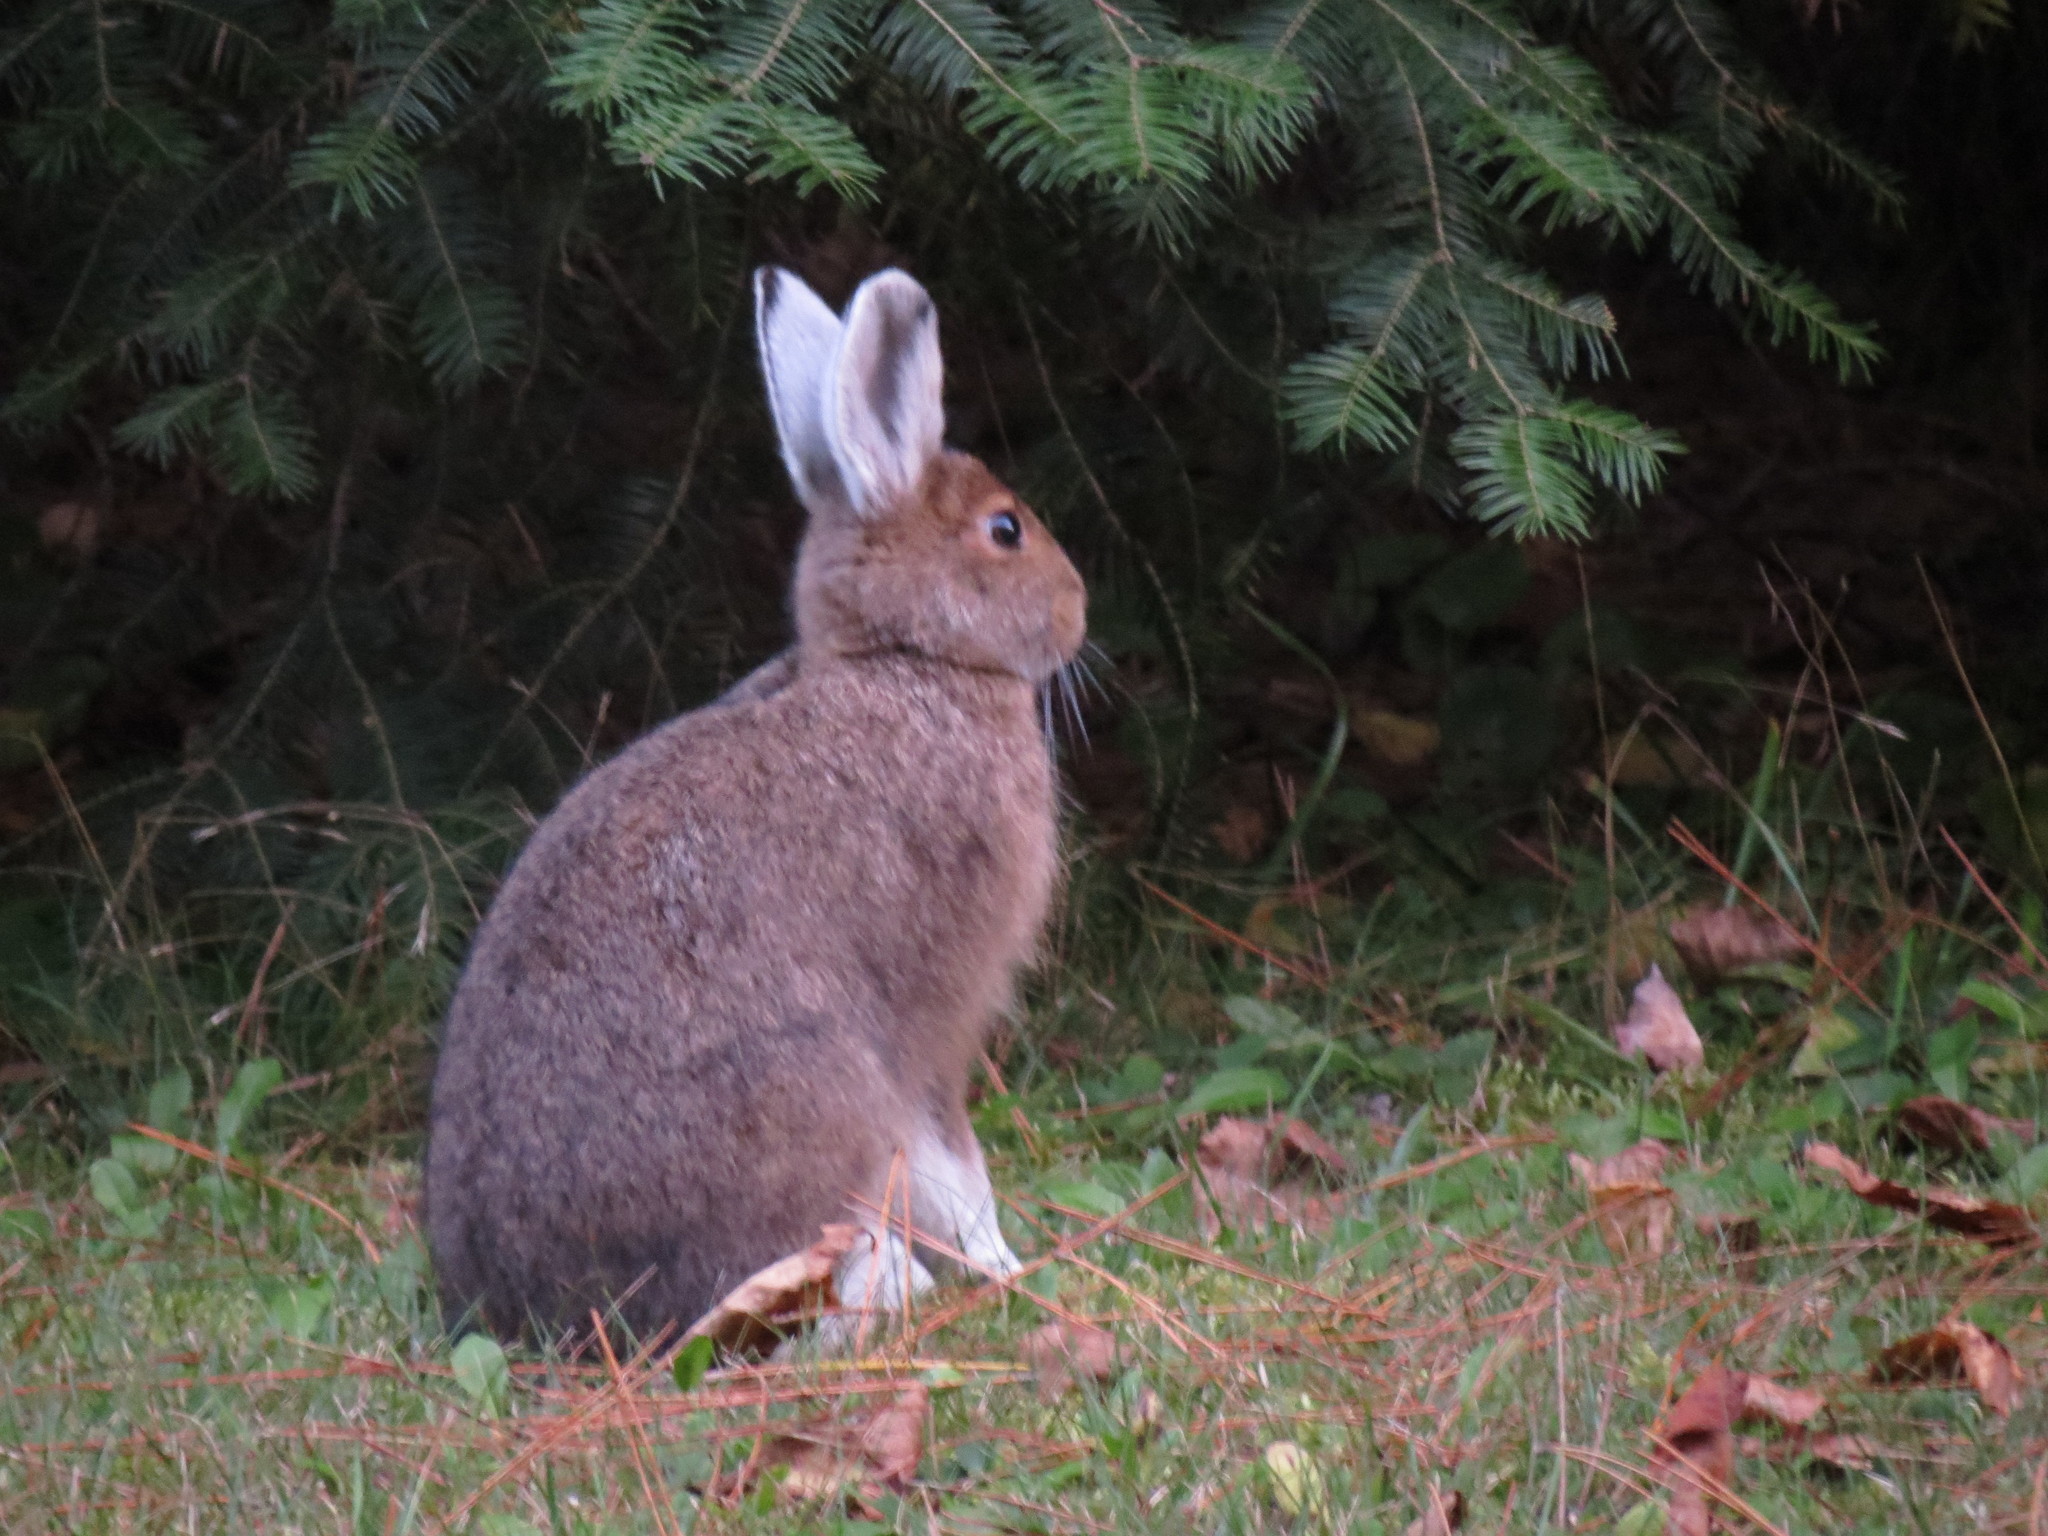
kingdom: Animalia
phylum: Chordata
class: Mammalia
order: Lagomorpha
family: Leporidae
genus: Lepus
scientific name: Lepus americanus
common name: Snowshoe hare
